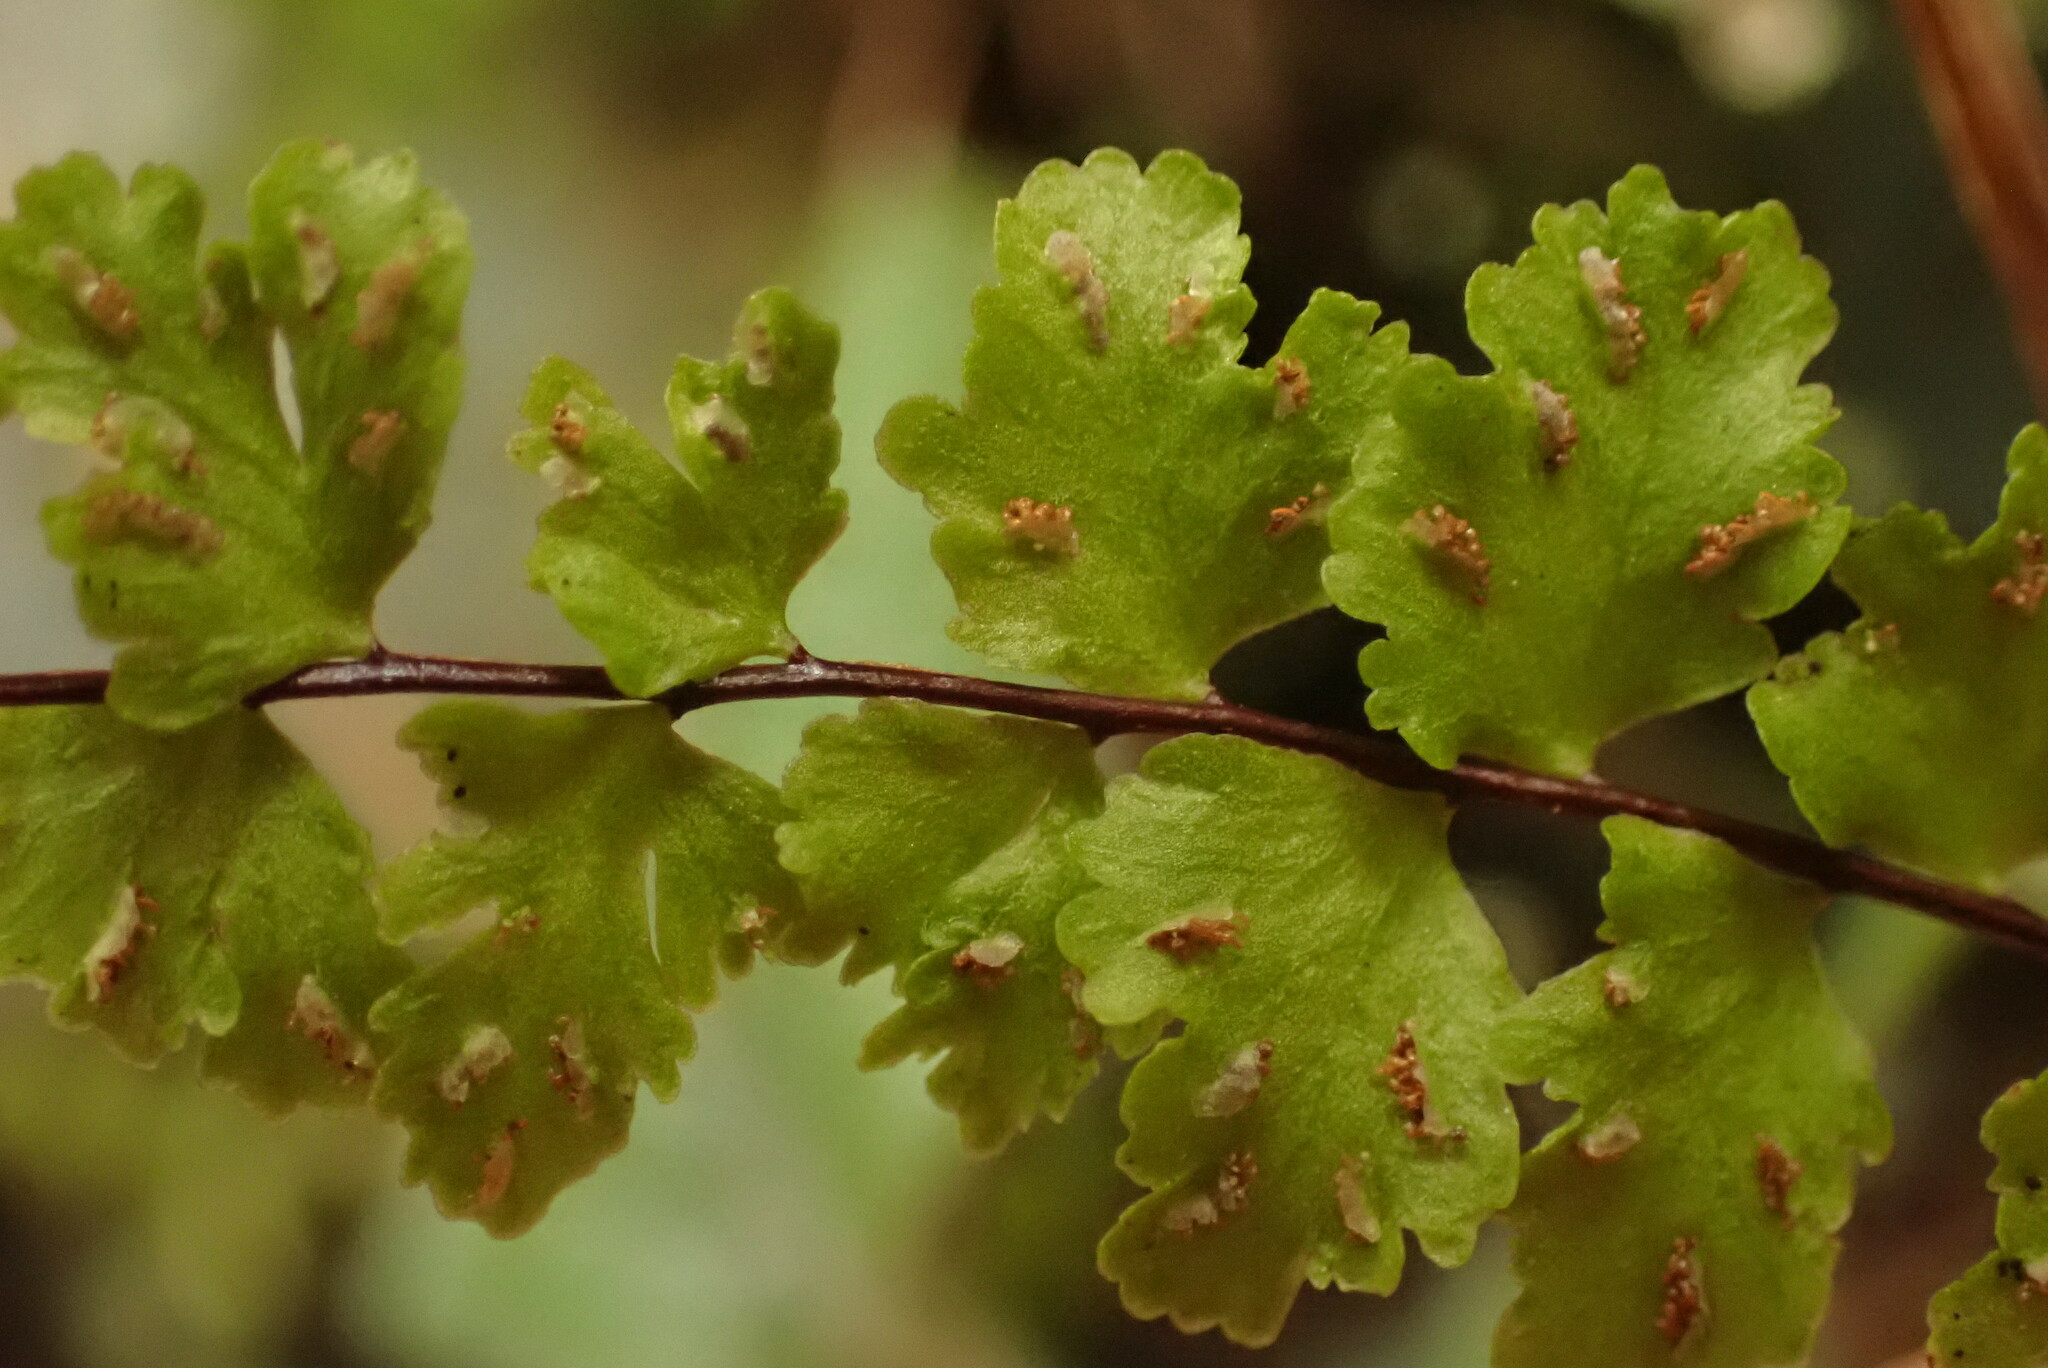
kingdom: Plantae
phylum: Tracheophyta
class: Polypodiopsida
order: Polypodiales
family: Aspleniaceae
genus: Asplenium
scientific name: Asplenium trichomanes
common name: Maidenhair spleenwort
